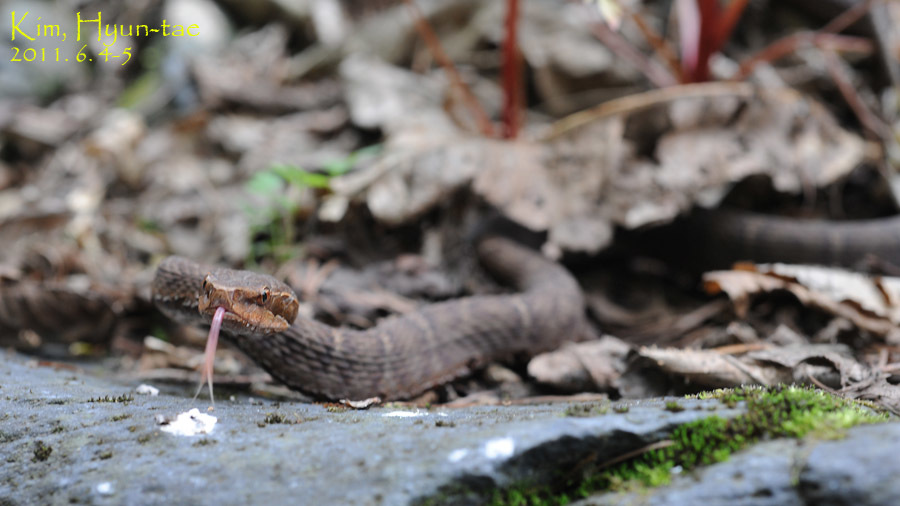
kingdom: Animalia
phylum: Chordata
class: Squamata
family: Viperidae
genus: Gloydius
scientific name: Gloydius ussuriensis
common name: Ussuri mamushi
